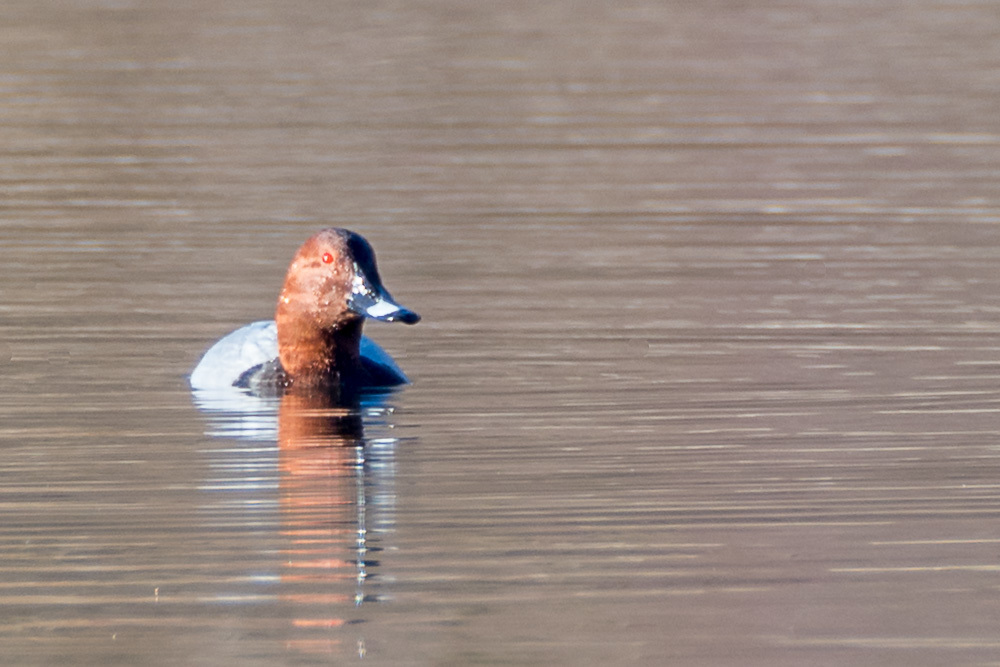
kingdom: Animalia
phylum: Chordata
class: Aves
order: Anseriformes
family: Anatidae
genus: Aythya
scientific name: Aythya ferina
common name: Common pochard
